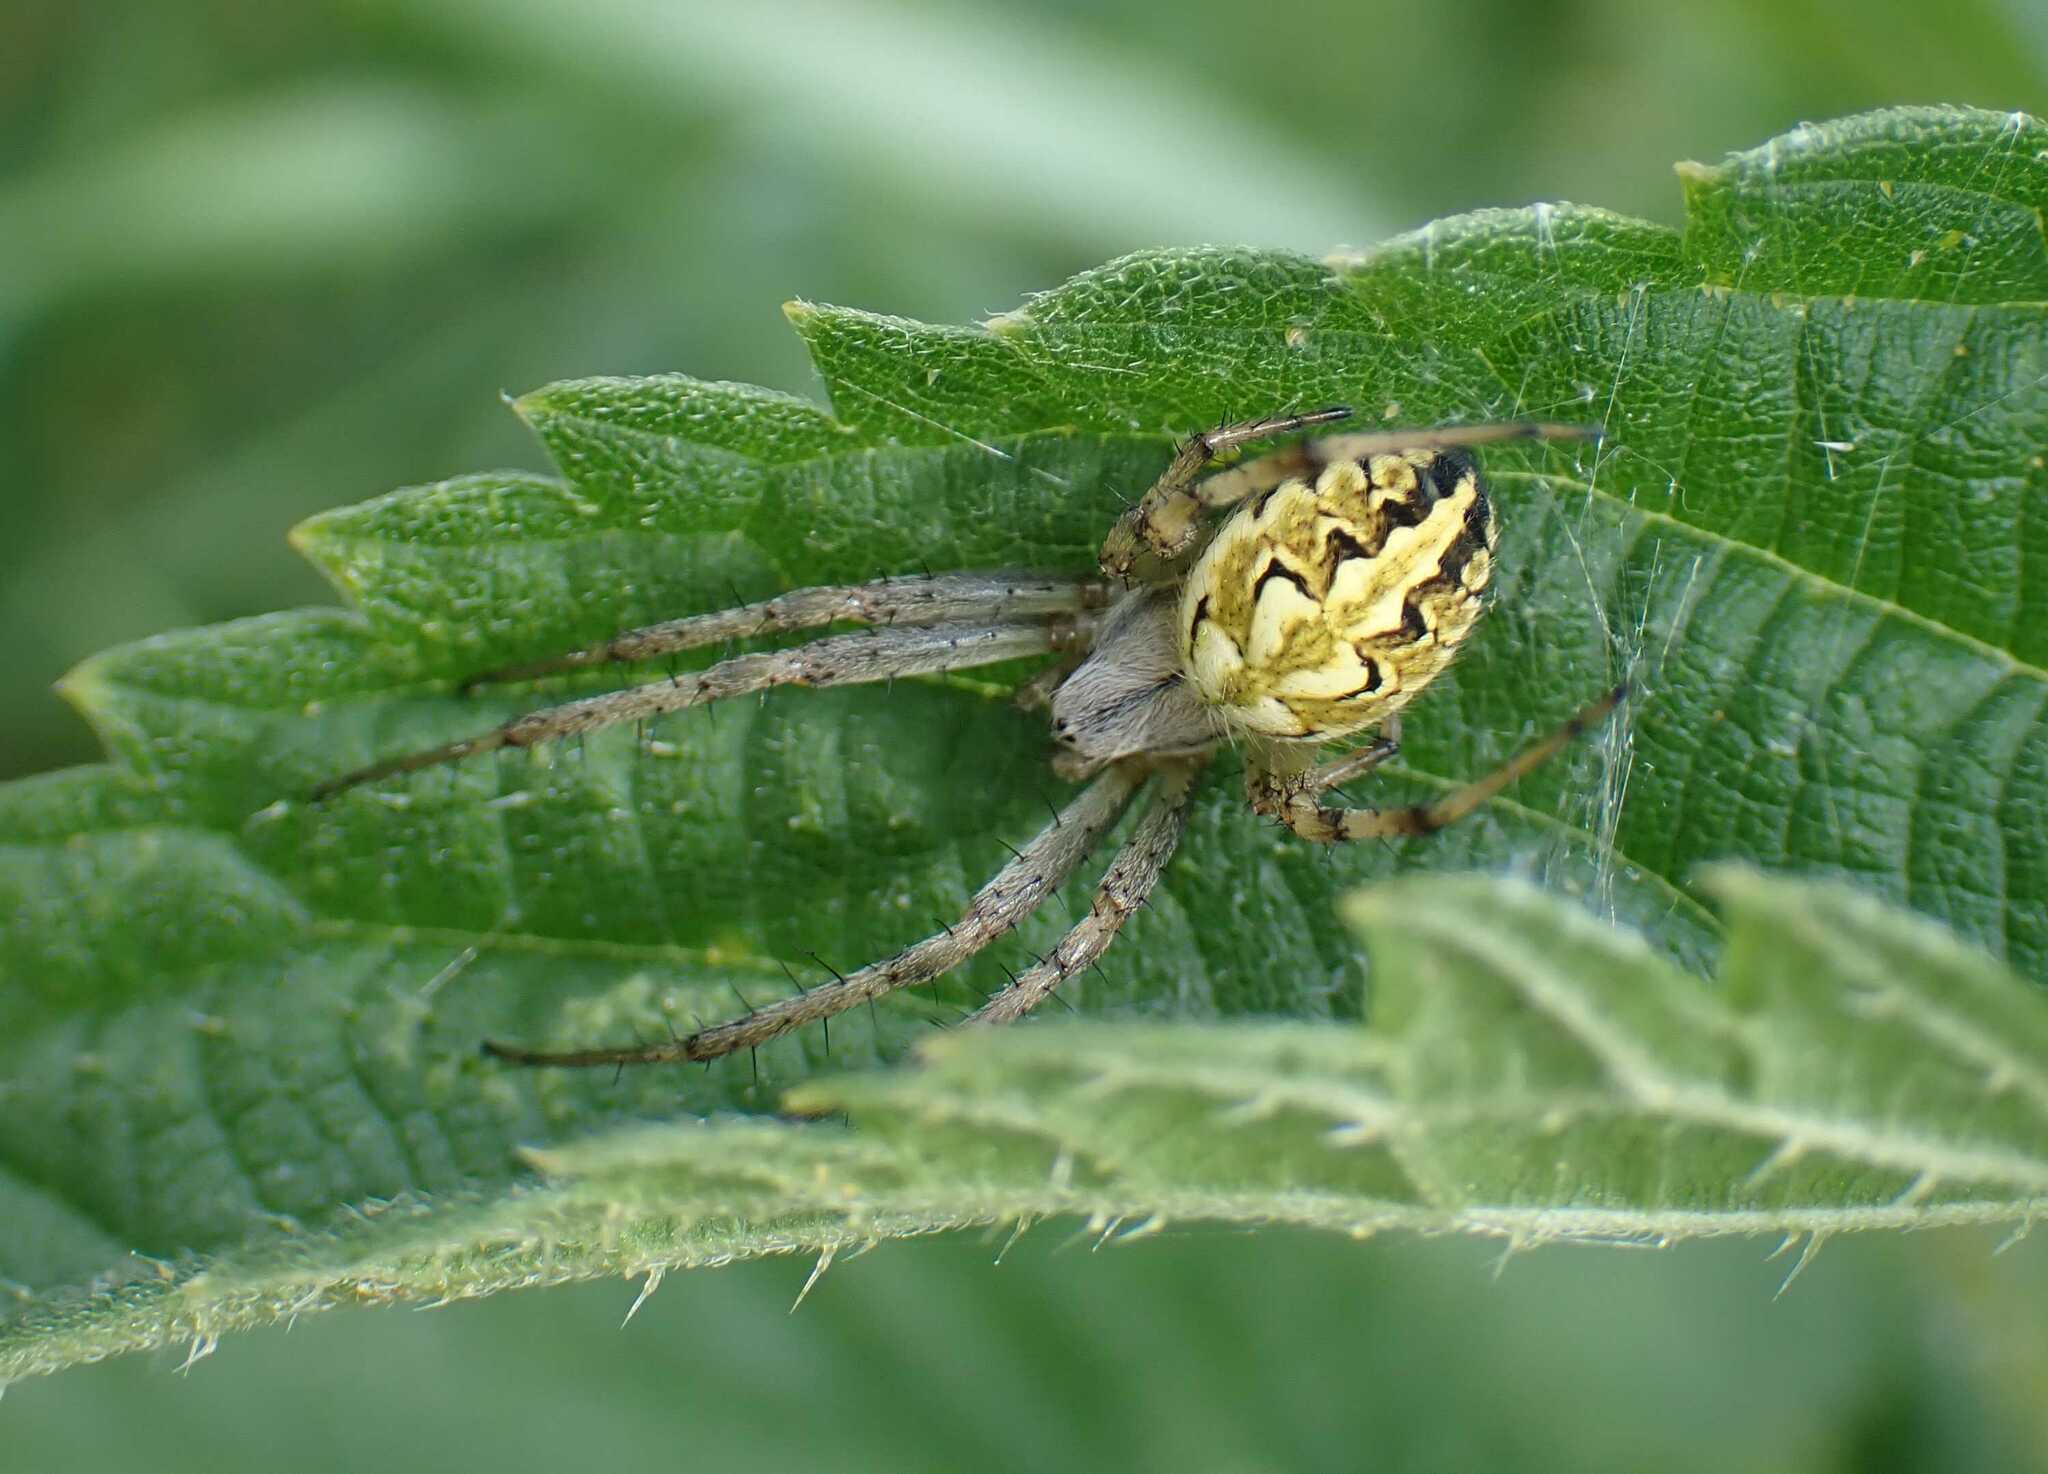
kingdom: Animalia
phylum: Arthropoda
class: Arachnida
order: Araneae
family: Araneidae
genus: Neoscona
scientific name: Neoscona adianta
